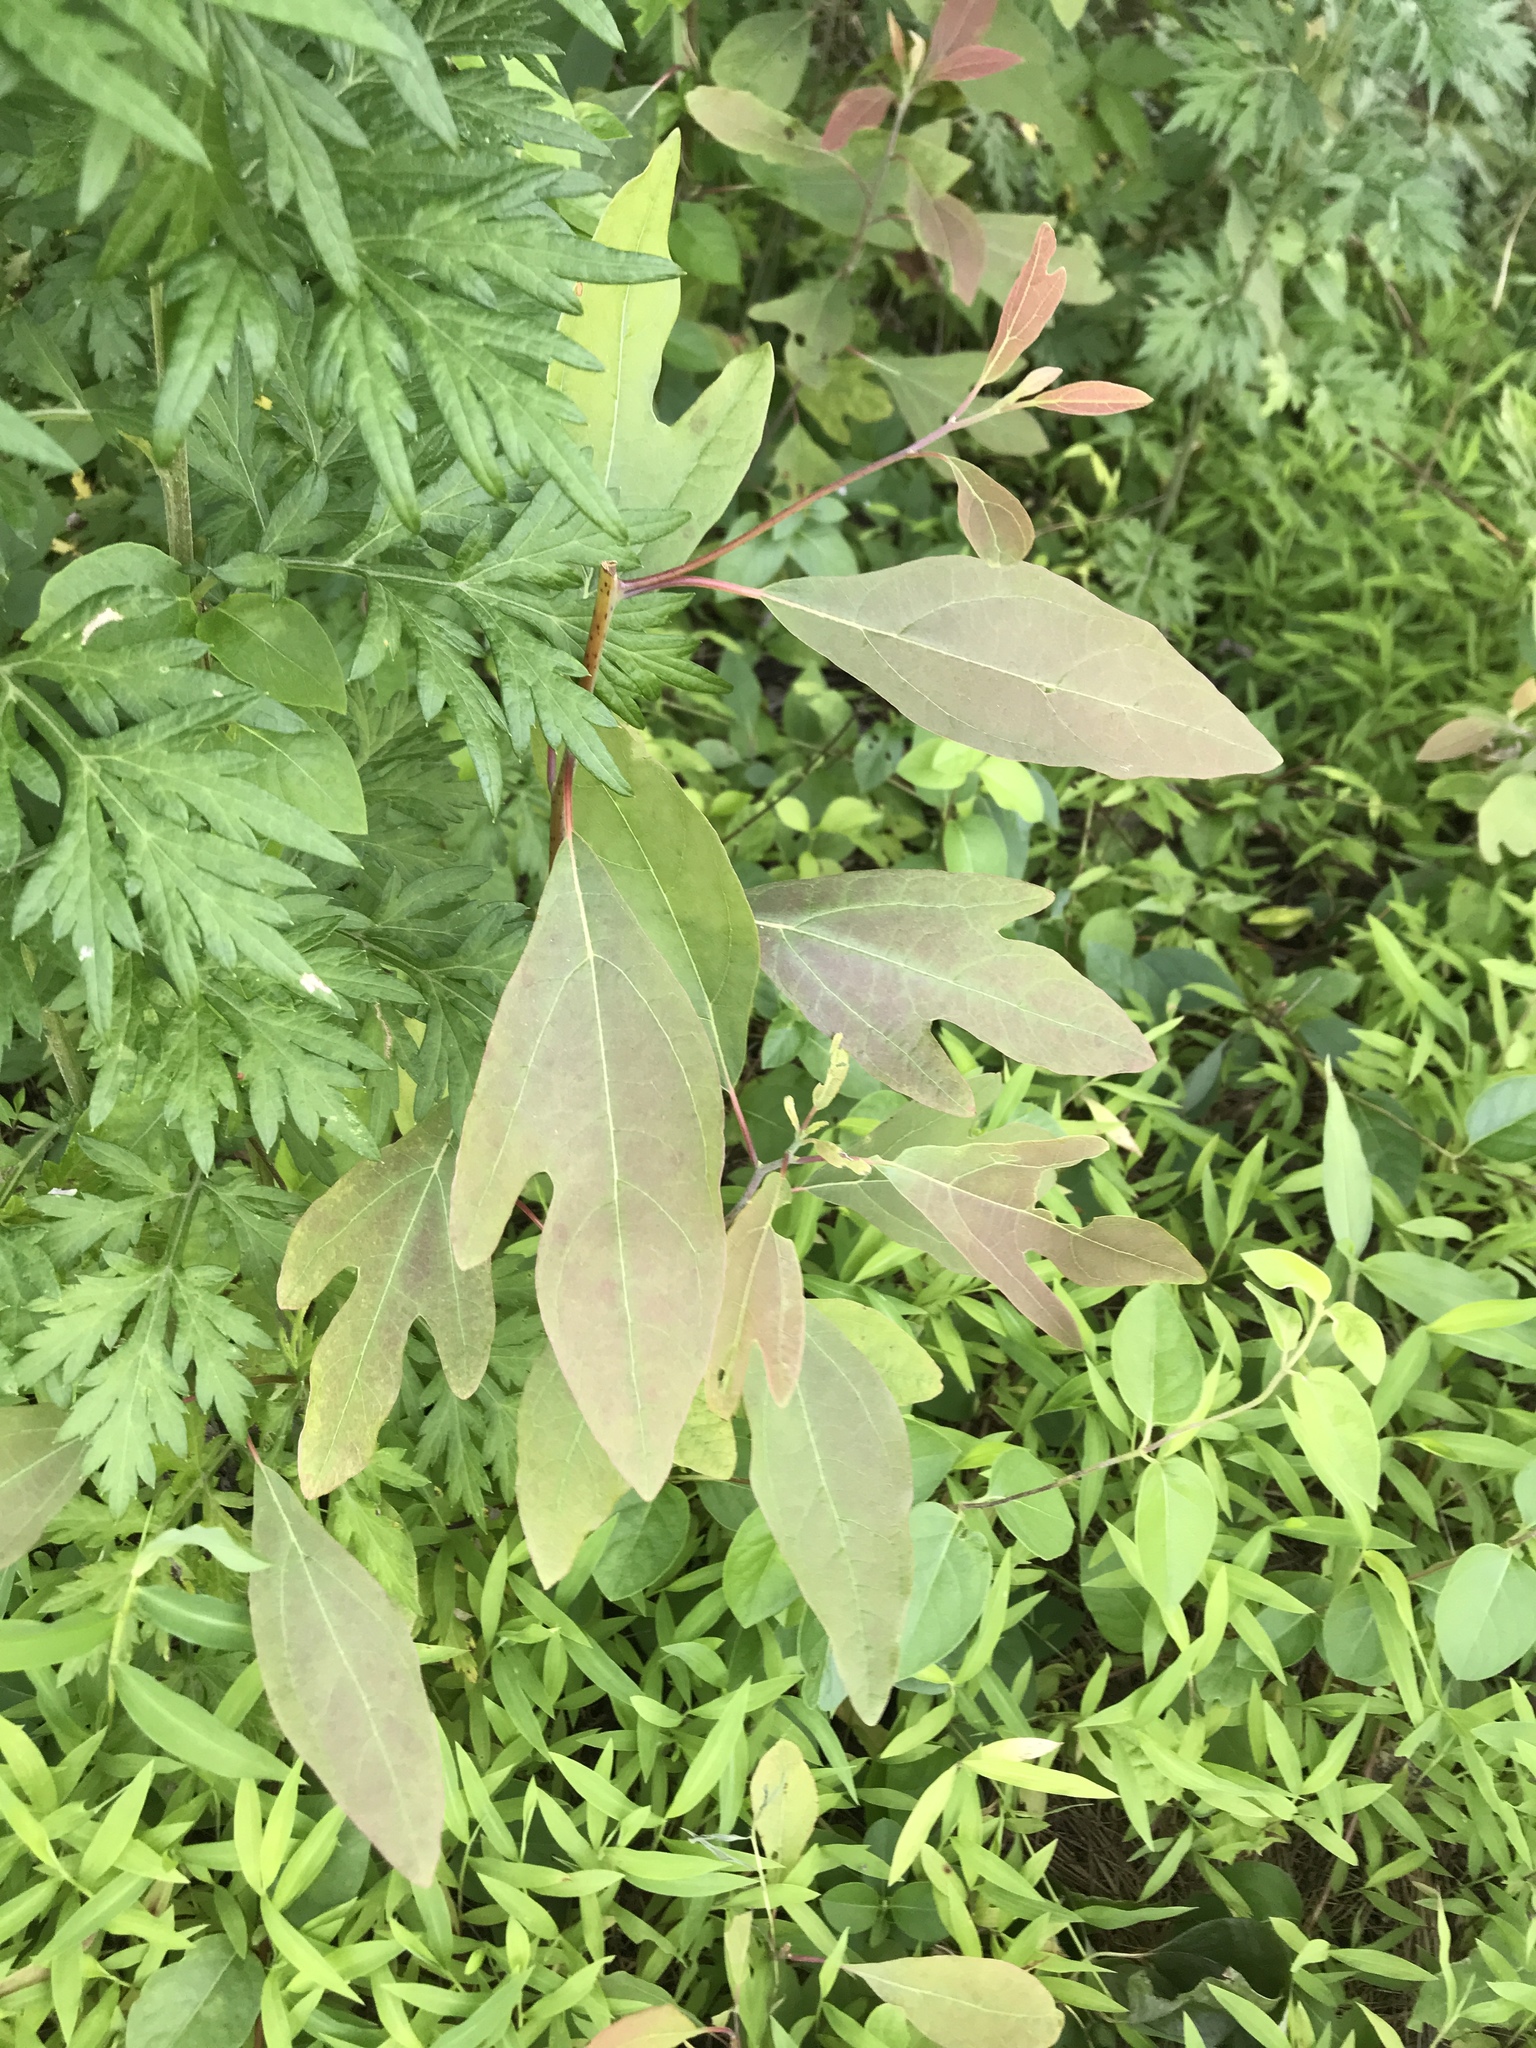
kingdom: Plantae
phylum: Tracheophyta
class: Magnoliopsida
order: Laurales
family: Lauraceae
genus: Sassafras
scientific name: Sassafras albidum
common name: Sassafras
